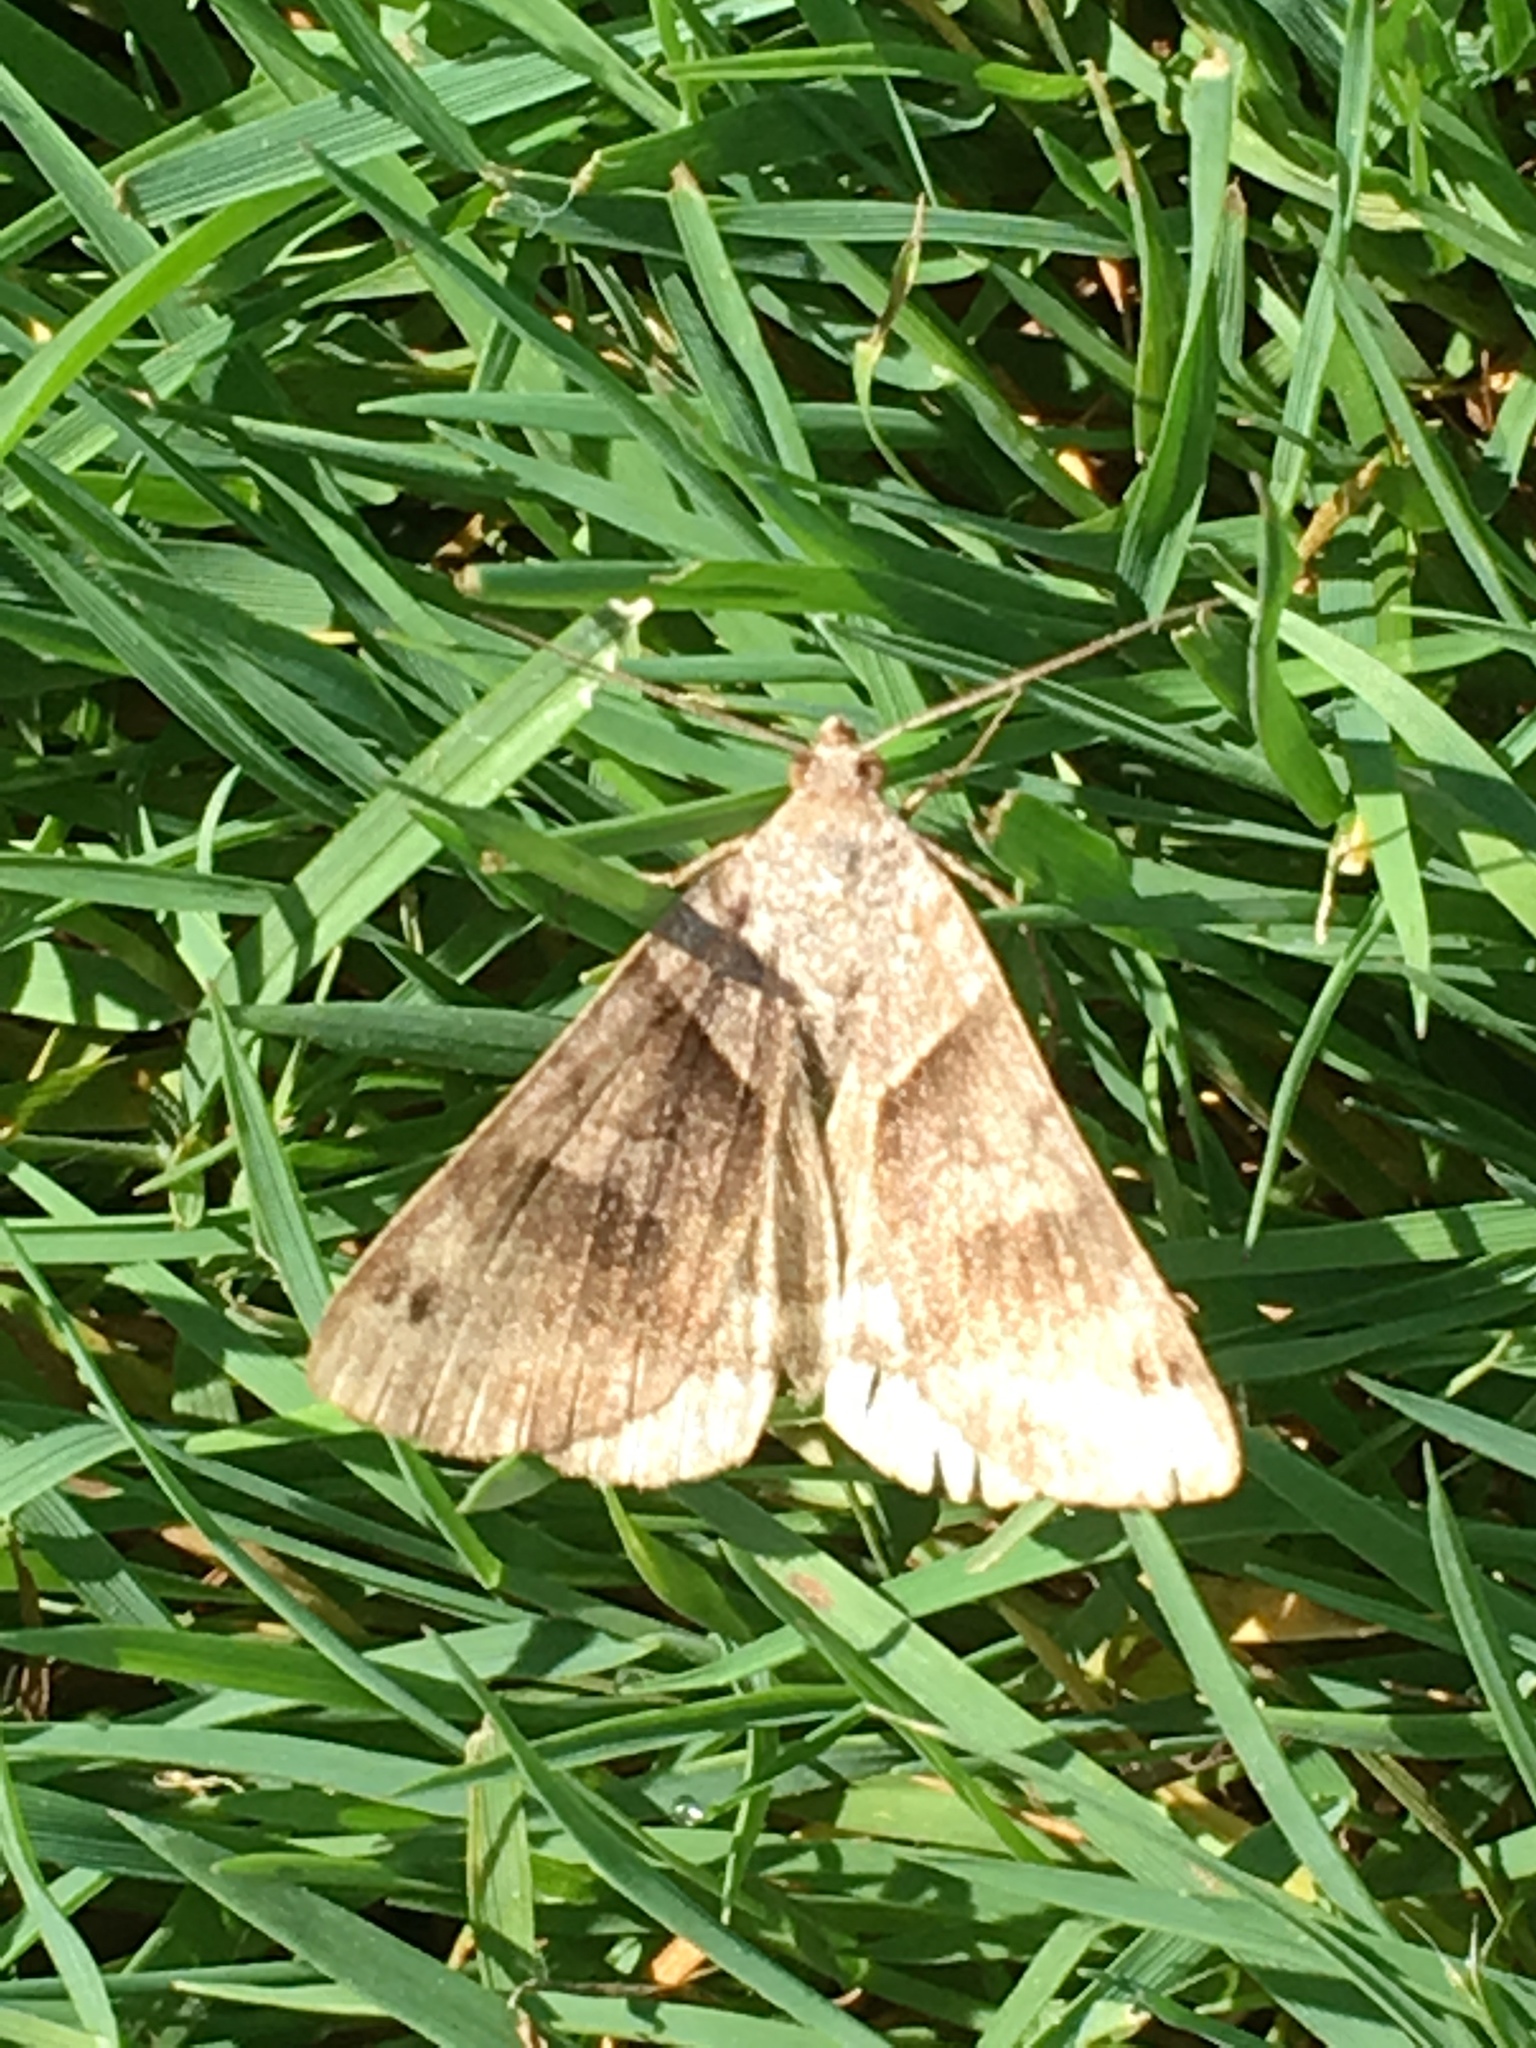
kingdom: Animalia
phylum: Arthropoda
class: Insecta
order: Lepidoptera
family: Erebidae
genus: Caenurgina
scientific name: Caenurgina crassiuscula
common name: Double-barred
